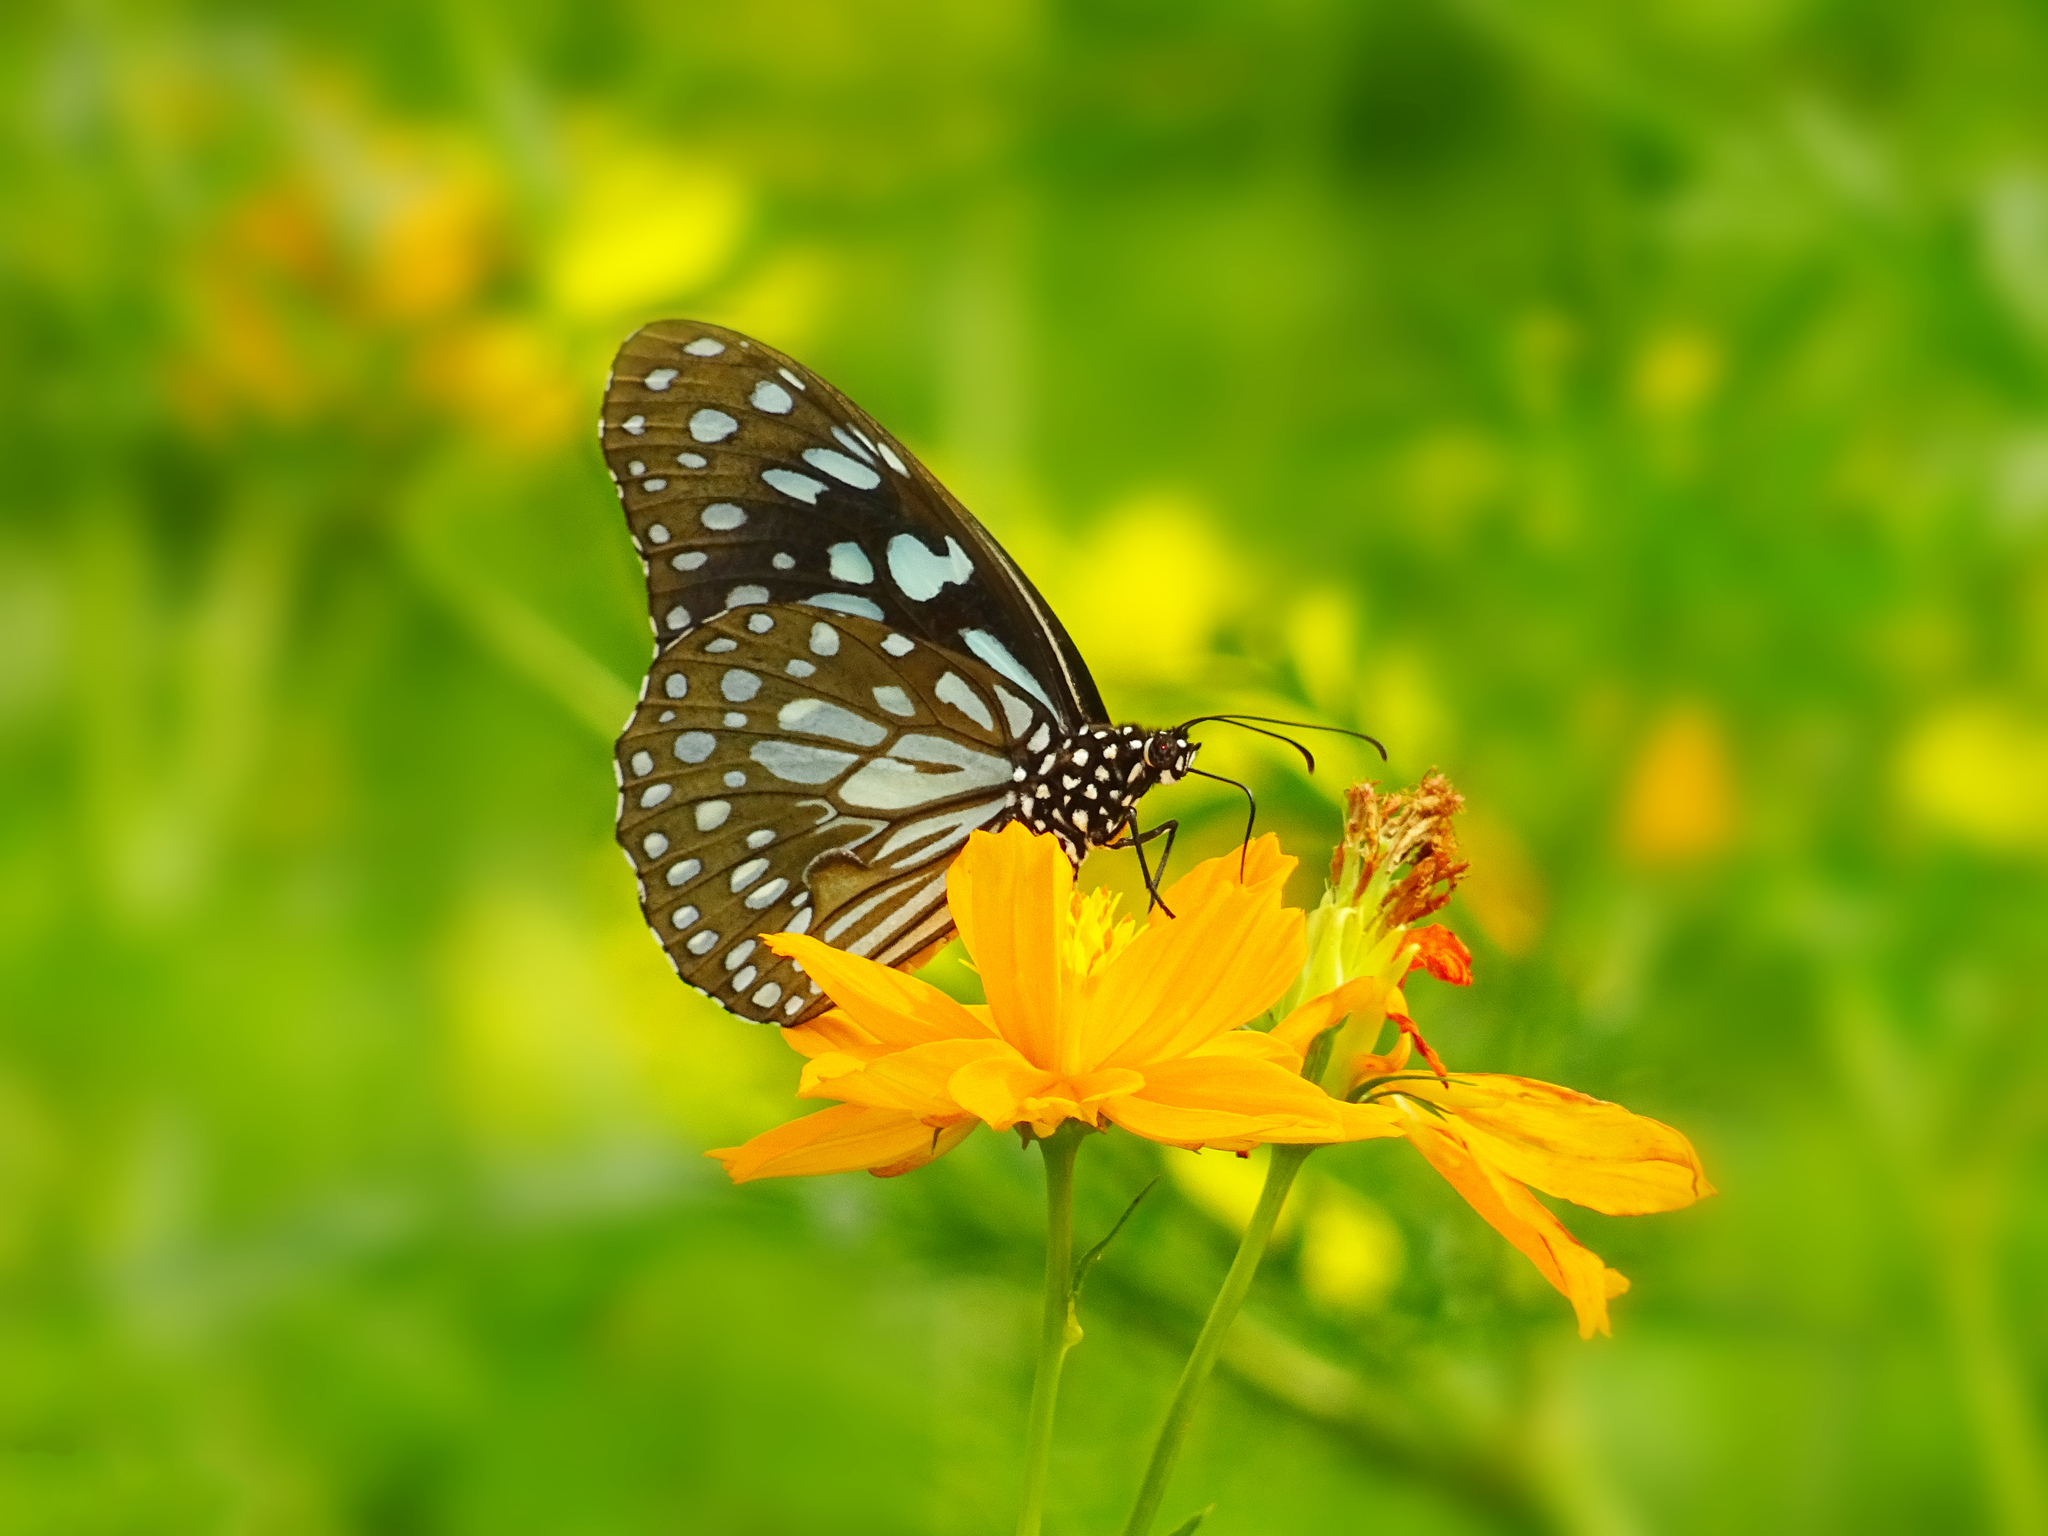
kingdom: Animalia
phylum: Arthropoda
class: Insecta
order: Lepidoptera
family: Nymphalidae
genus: Tirumala
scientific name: Tirumala limniace
